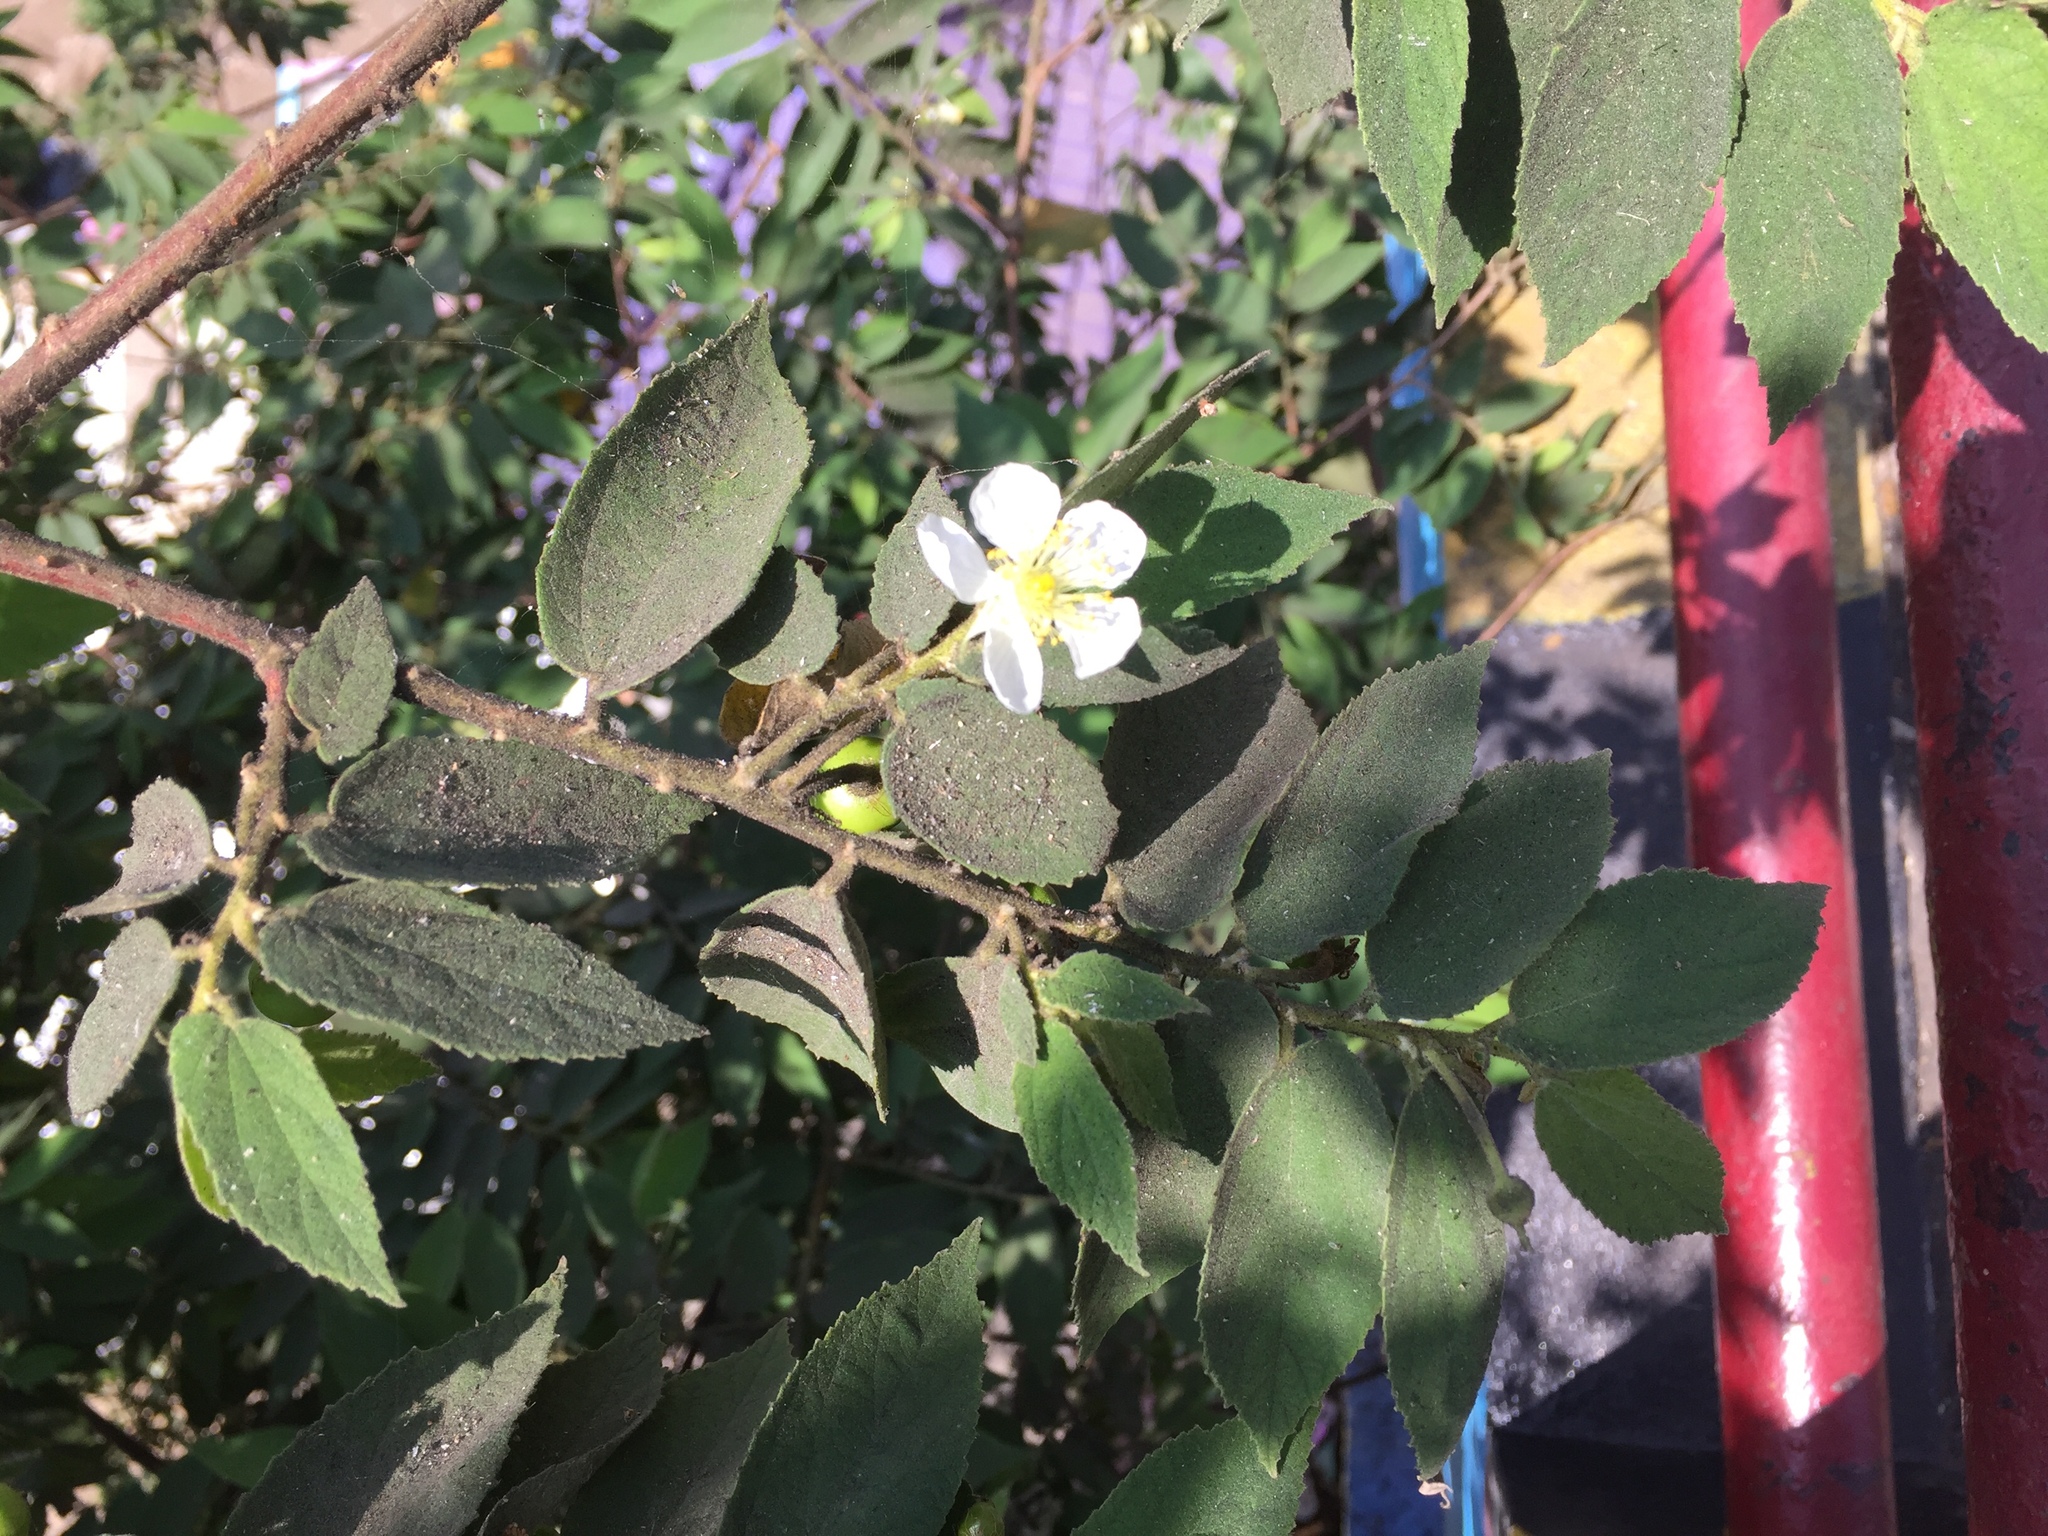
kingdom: Plantae
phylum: Tracheophyta
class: Magnoliopsida
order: Malvales
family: Muntingiaceae
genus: Muntingia
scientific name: Muntingia calabura
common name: Strawberrytree
